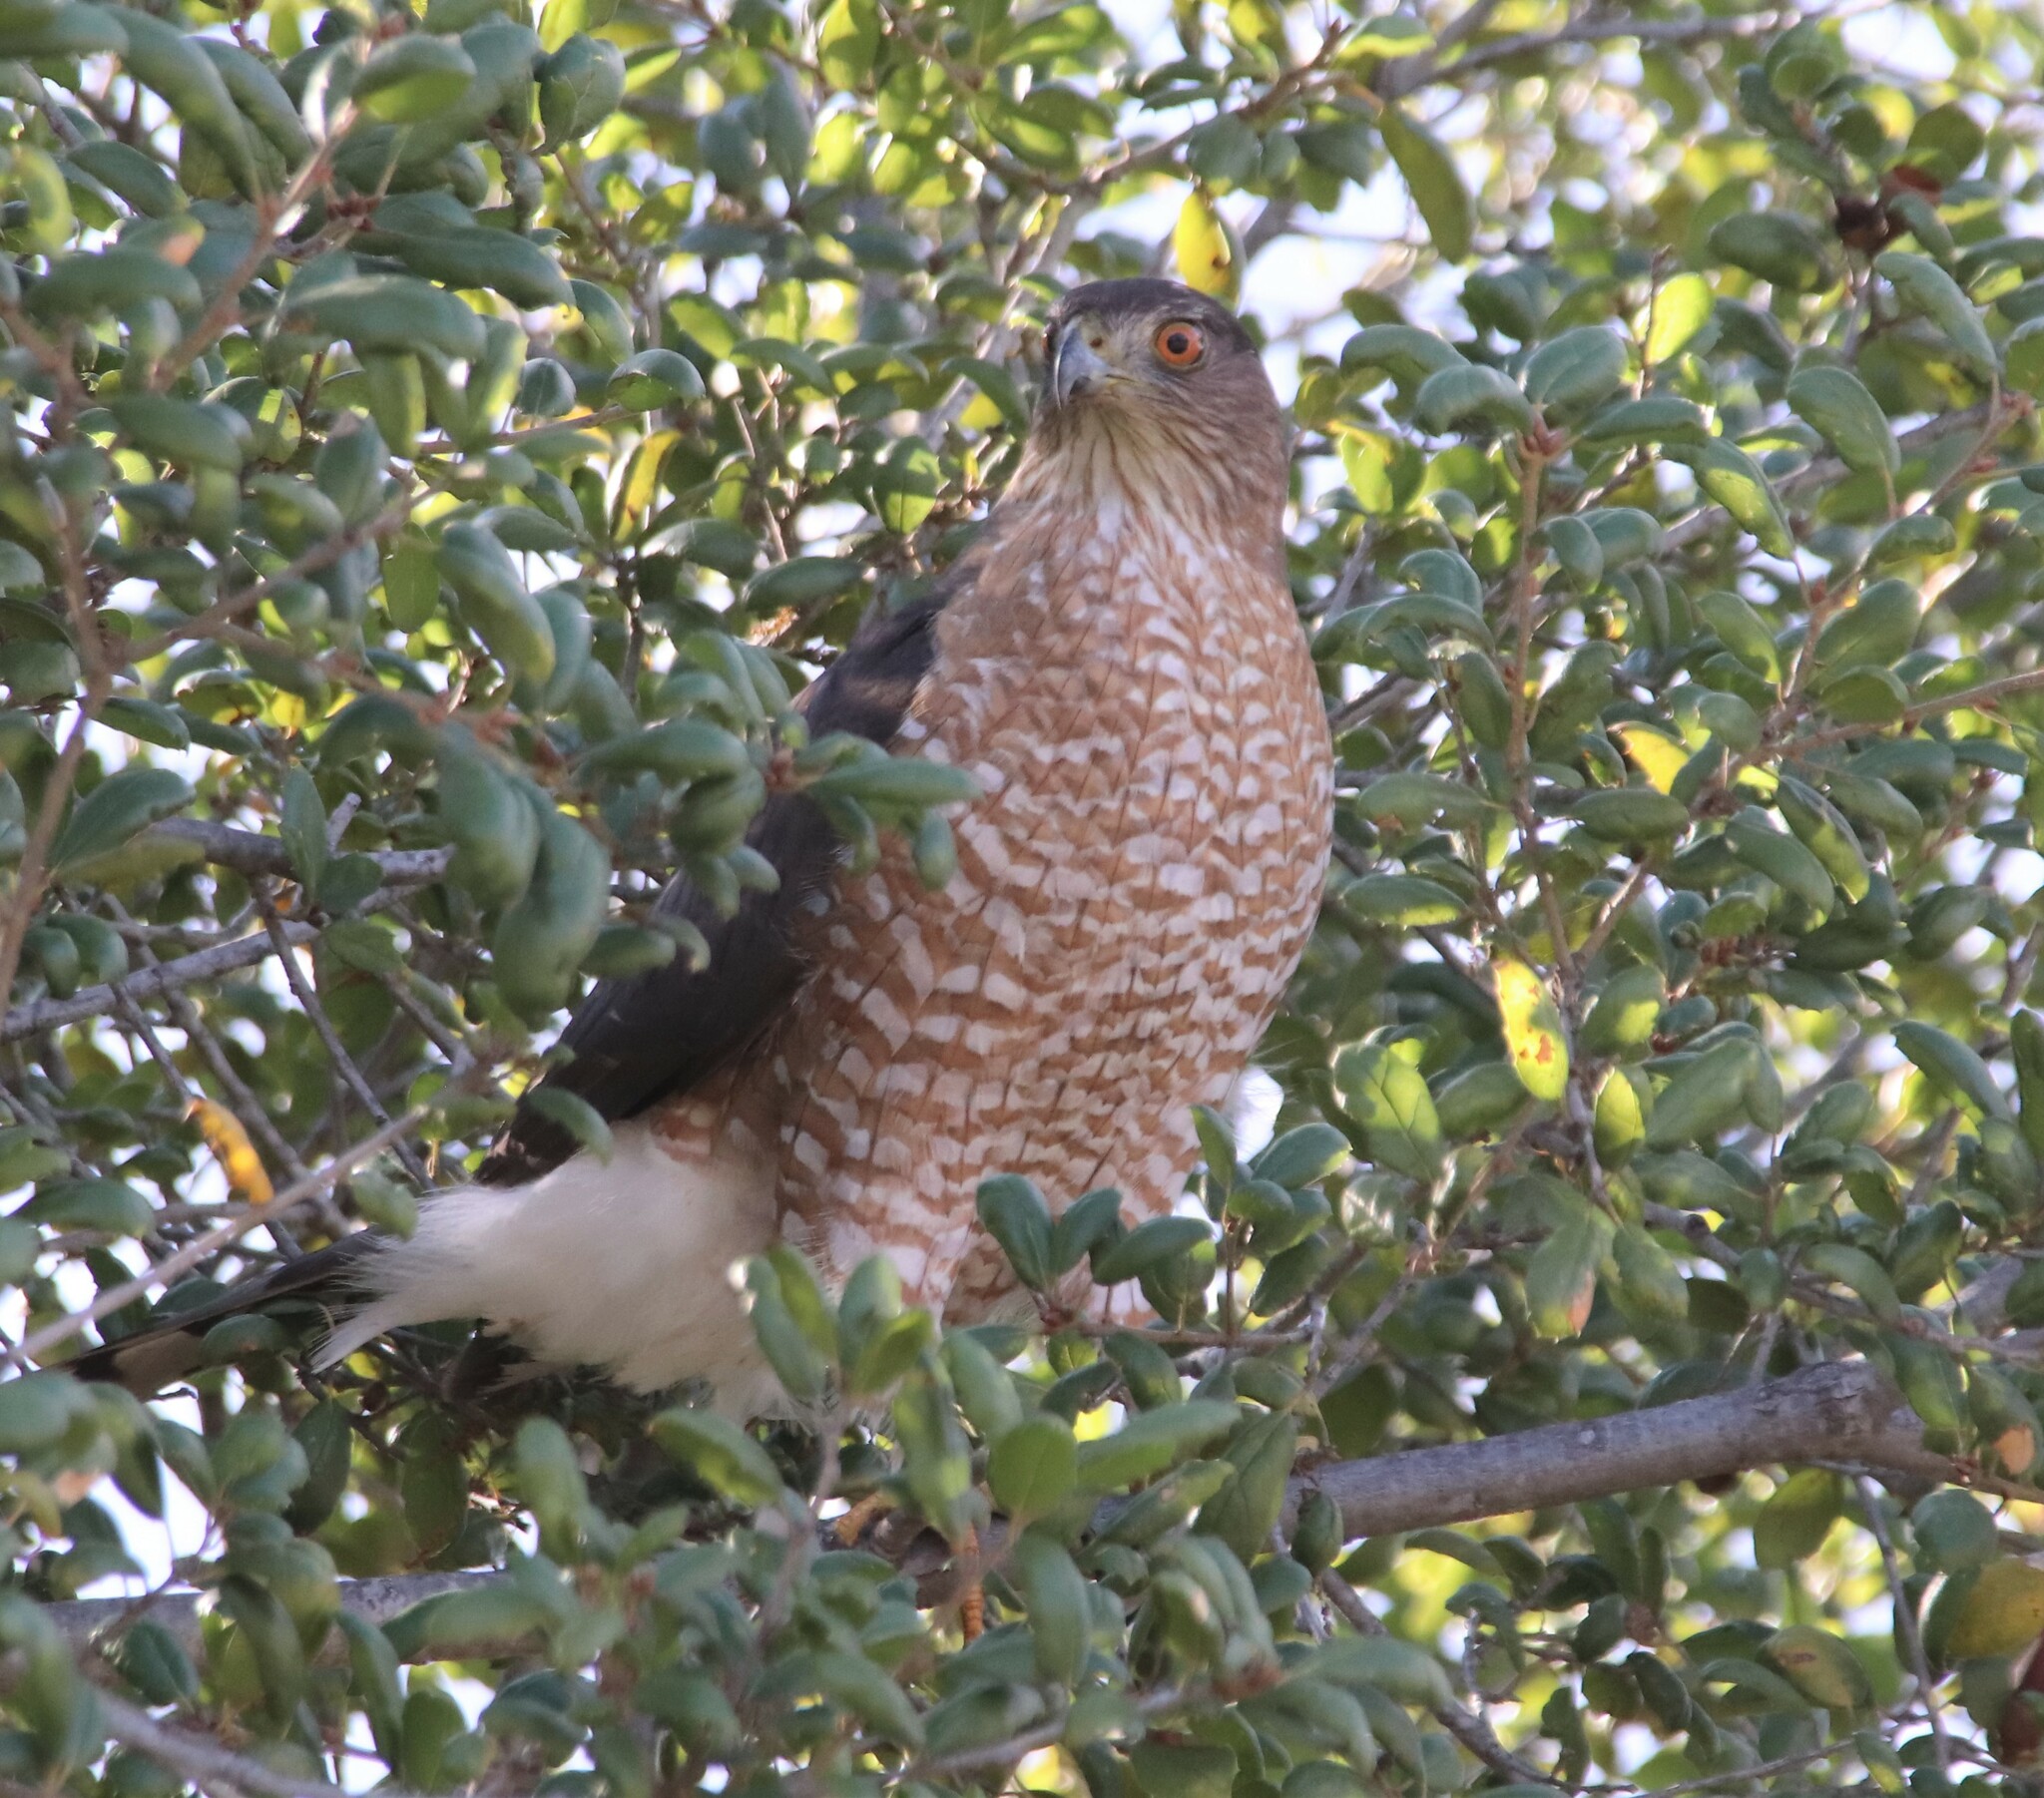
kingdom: Animalia
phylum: Chordata
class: Aves
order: Accipitriformes
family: Accipitridae
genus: Accipiter
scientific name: Accipiter cooperii
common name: Cooper's hawk
